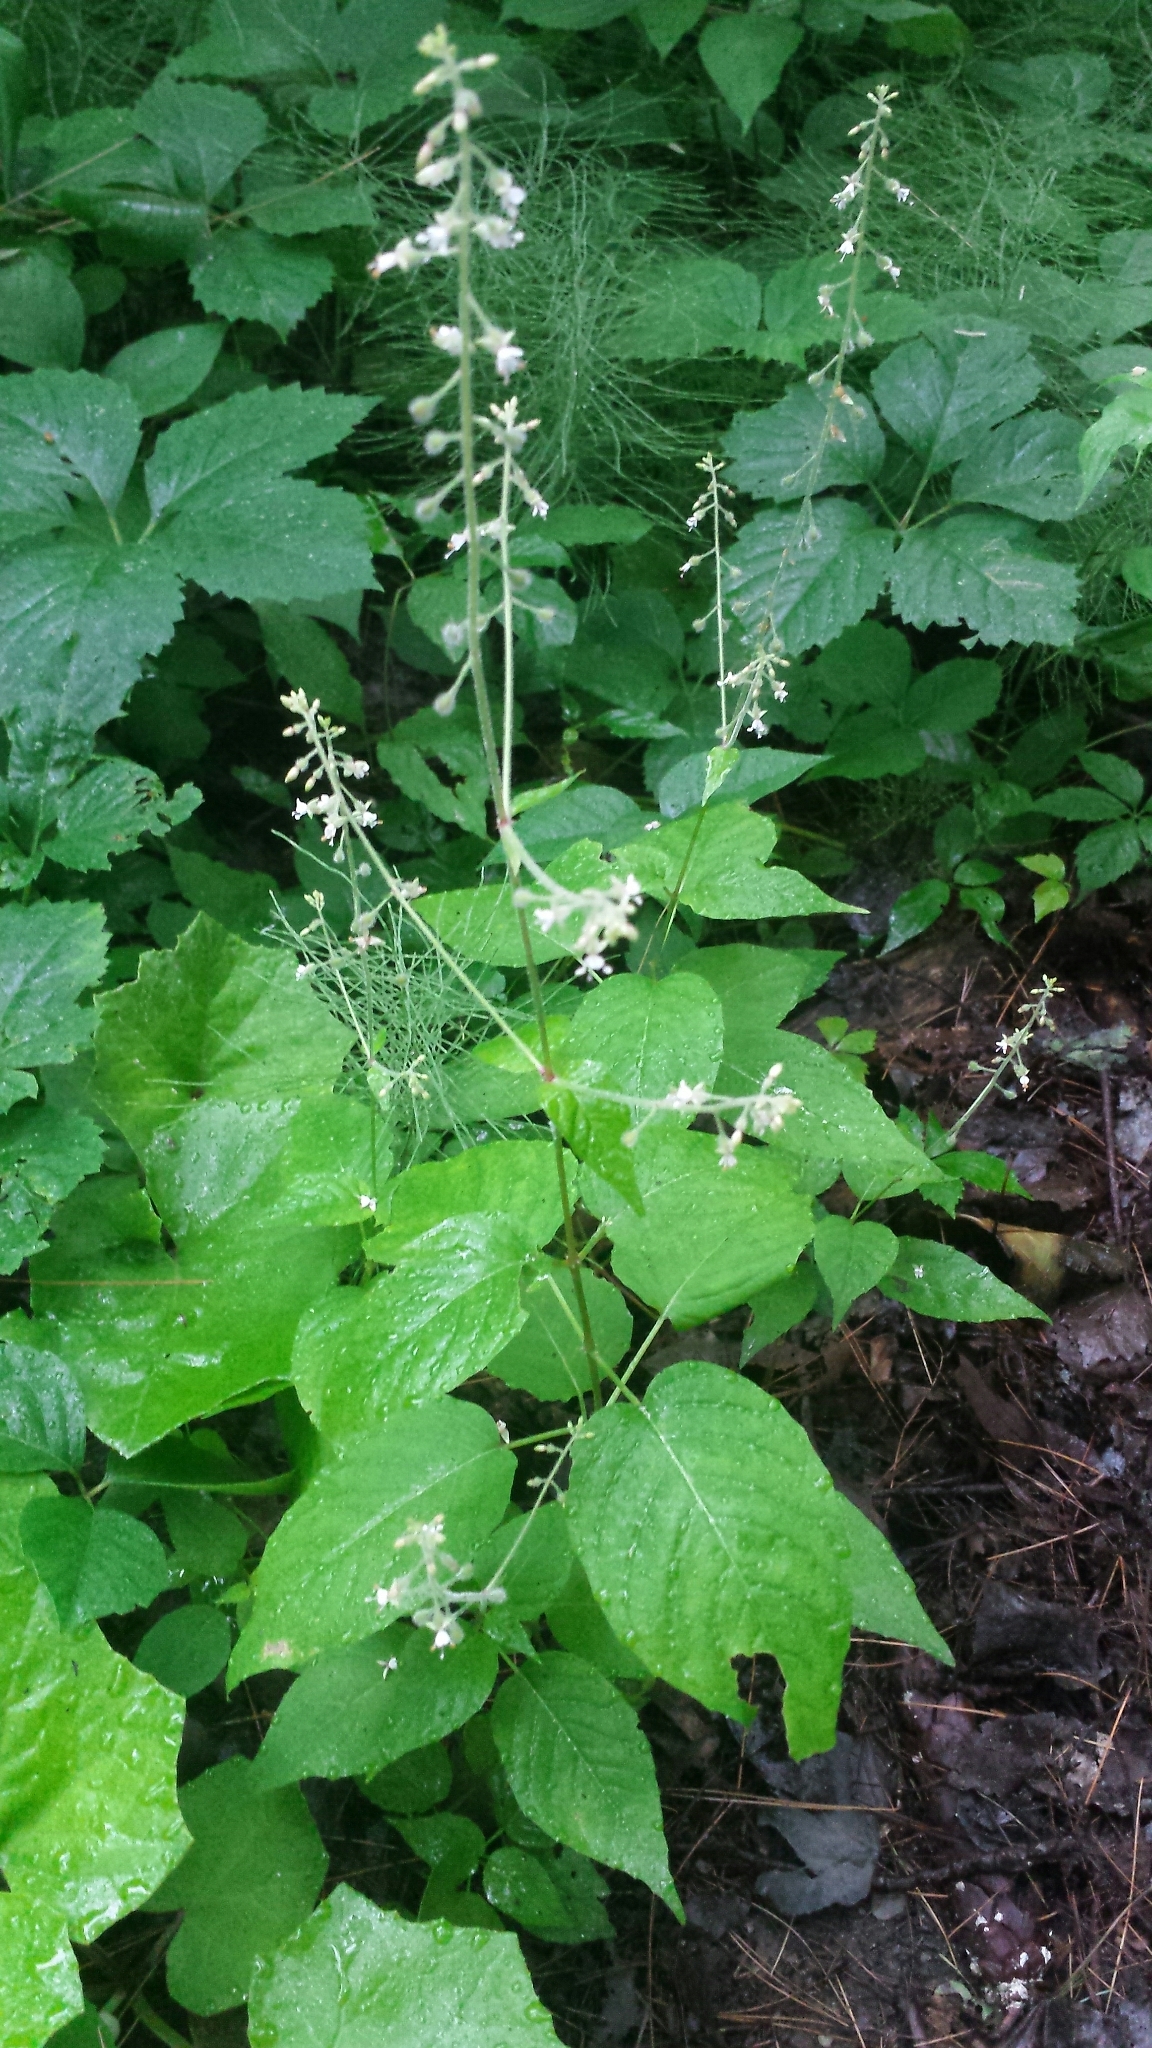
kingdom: Plantae
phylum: Tracheophyta
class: Magnoliopsida
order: Myrtales
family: Onagraceae
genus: Circaea
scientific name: Circaea canadensis
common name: Broad-leaved enchanter's nightshade
